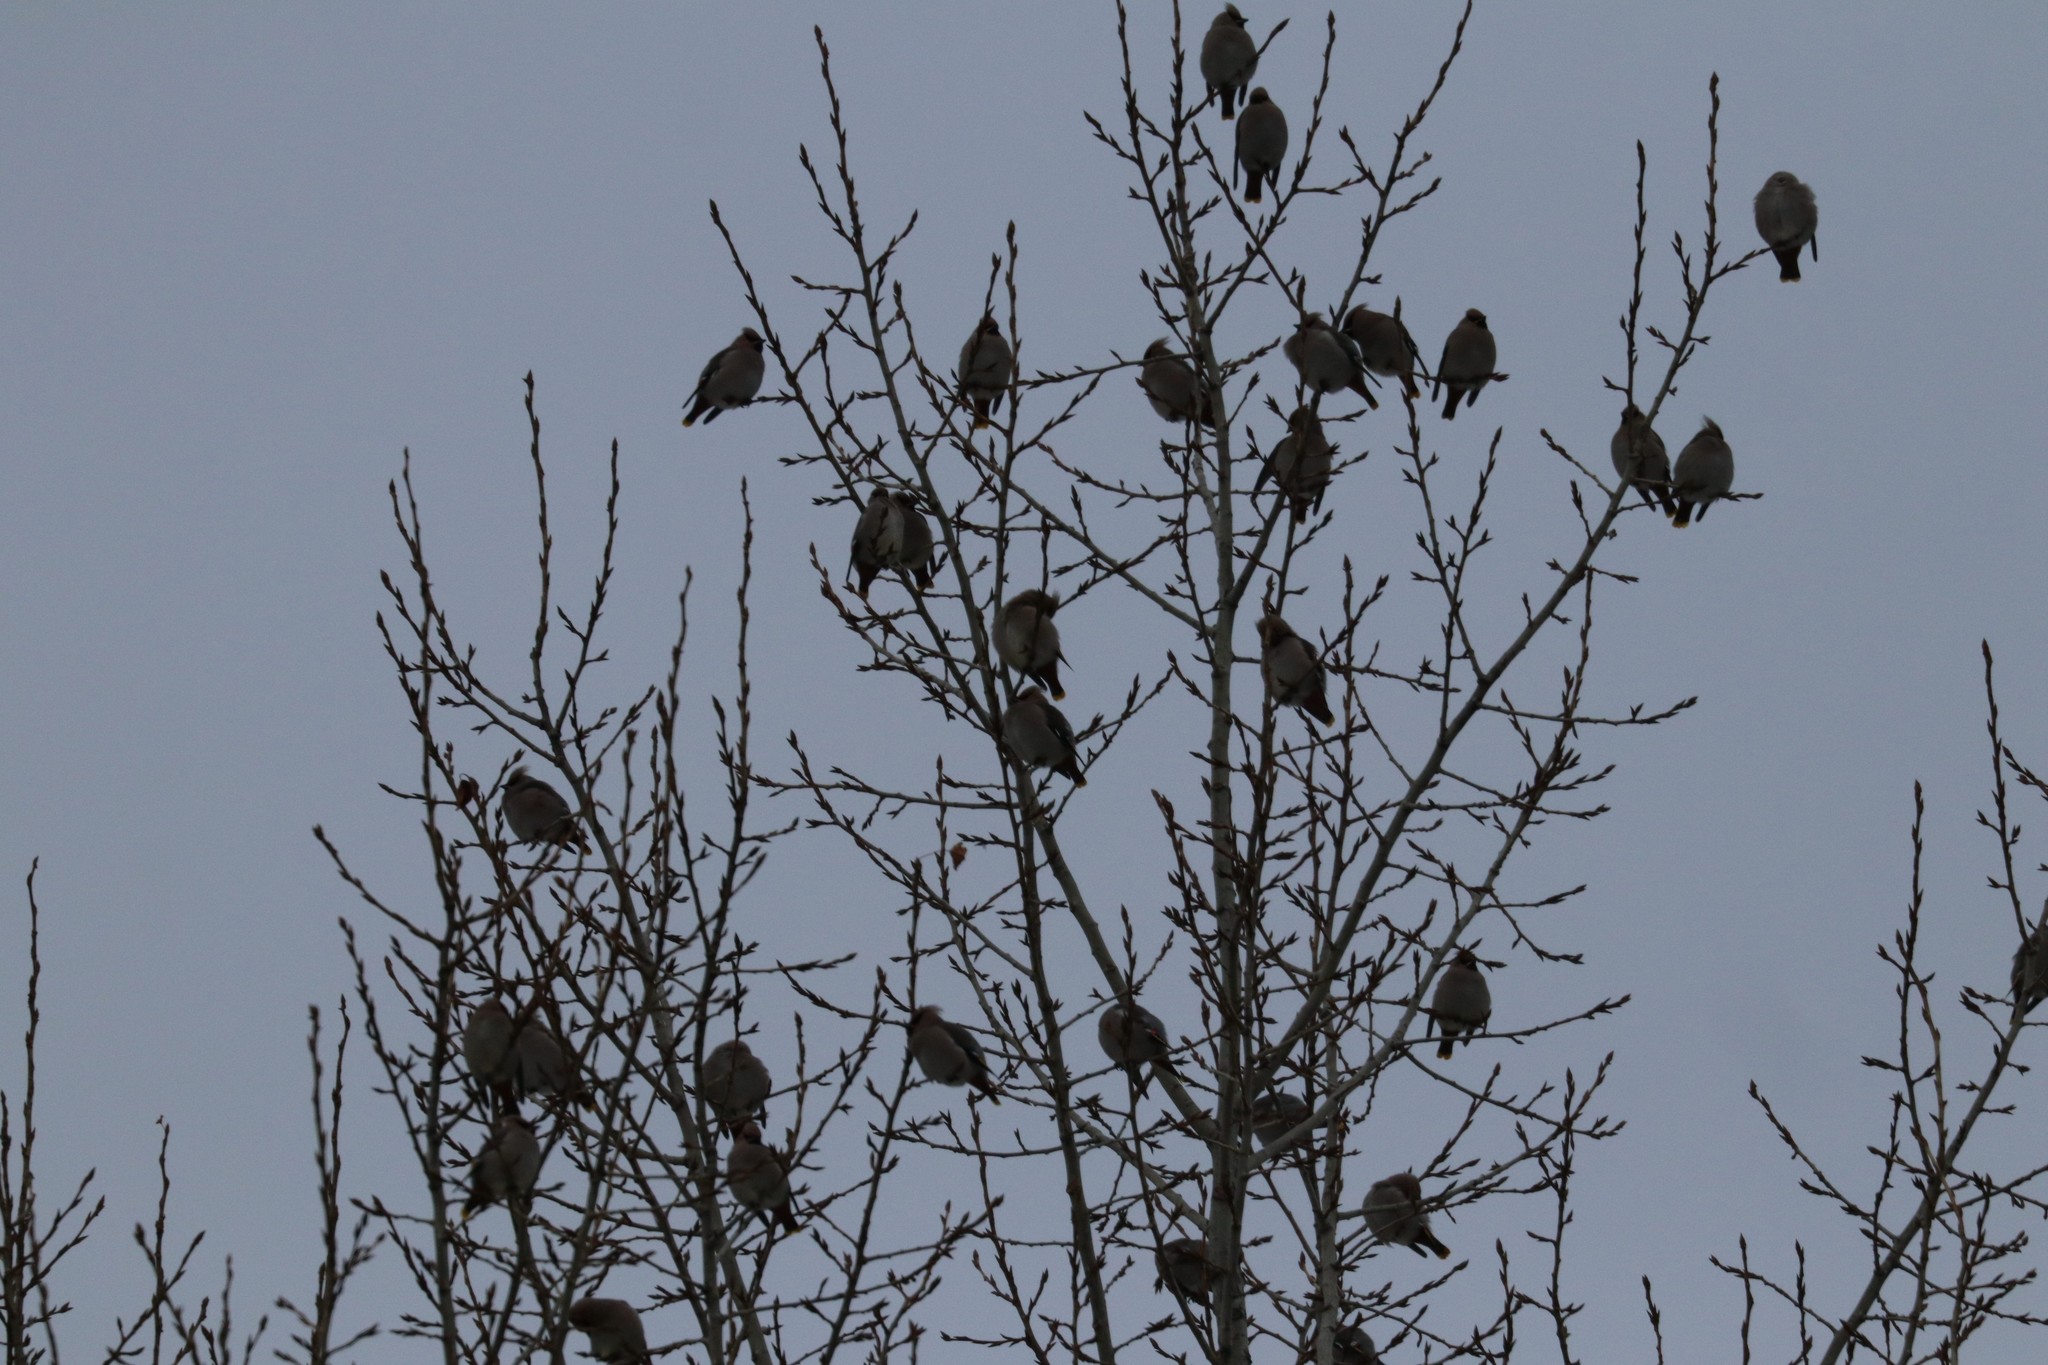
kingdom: Animalia
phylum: Chordata
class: Aves
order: Passeriformes
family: Bombycillidae
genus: Bombycilla
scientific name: Bombycilla garrulus
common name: Bohemian waxwing
